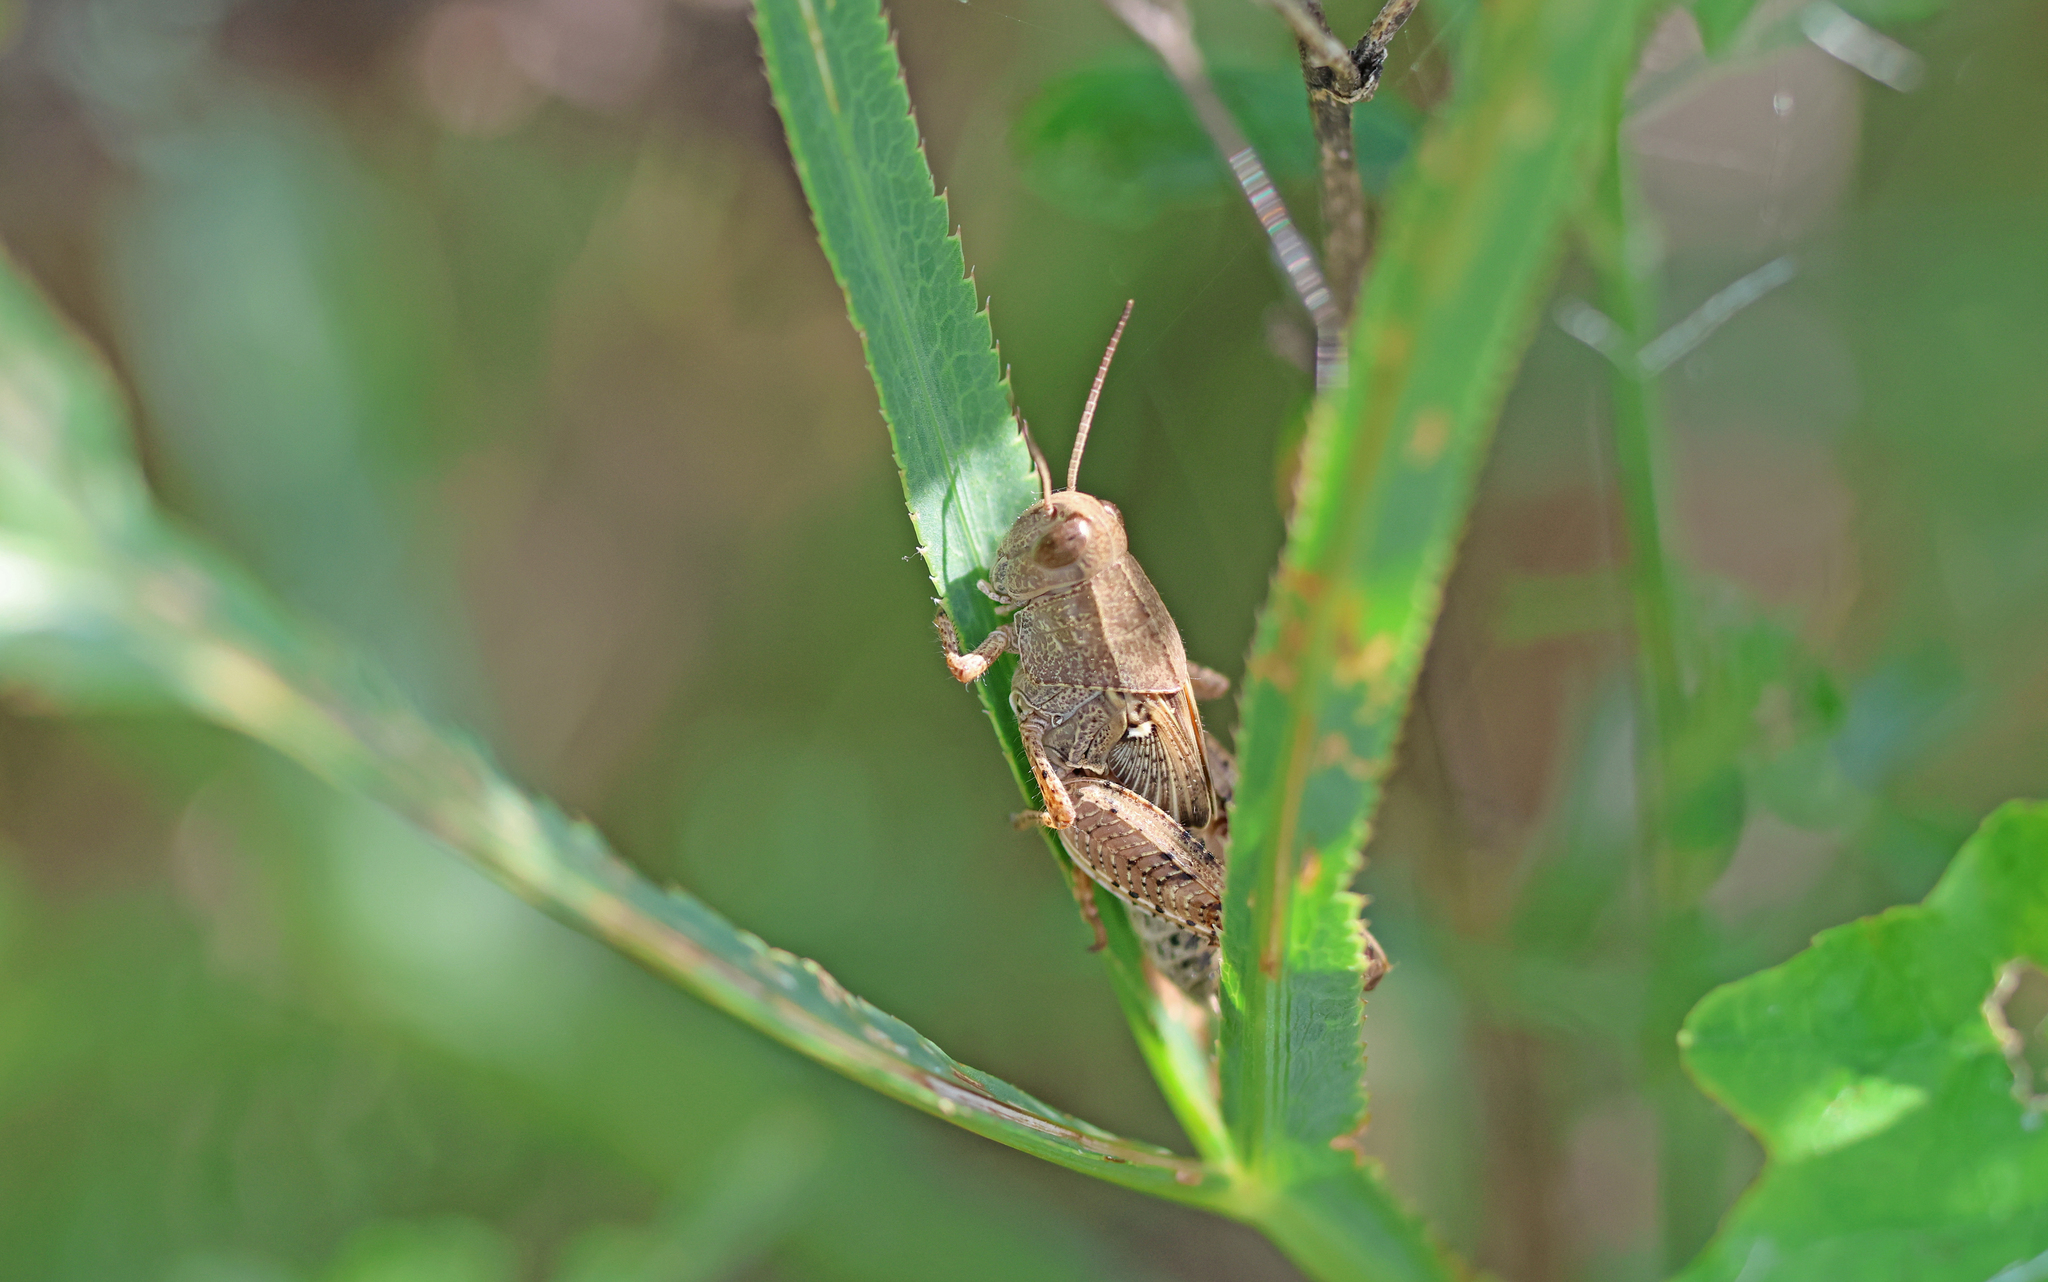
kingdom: Animalia
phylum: Arthropoda
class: Insecta
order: Orthoptera
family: Acrididae
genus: Calliptamus
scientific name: Calliptamus italicus
